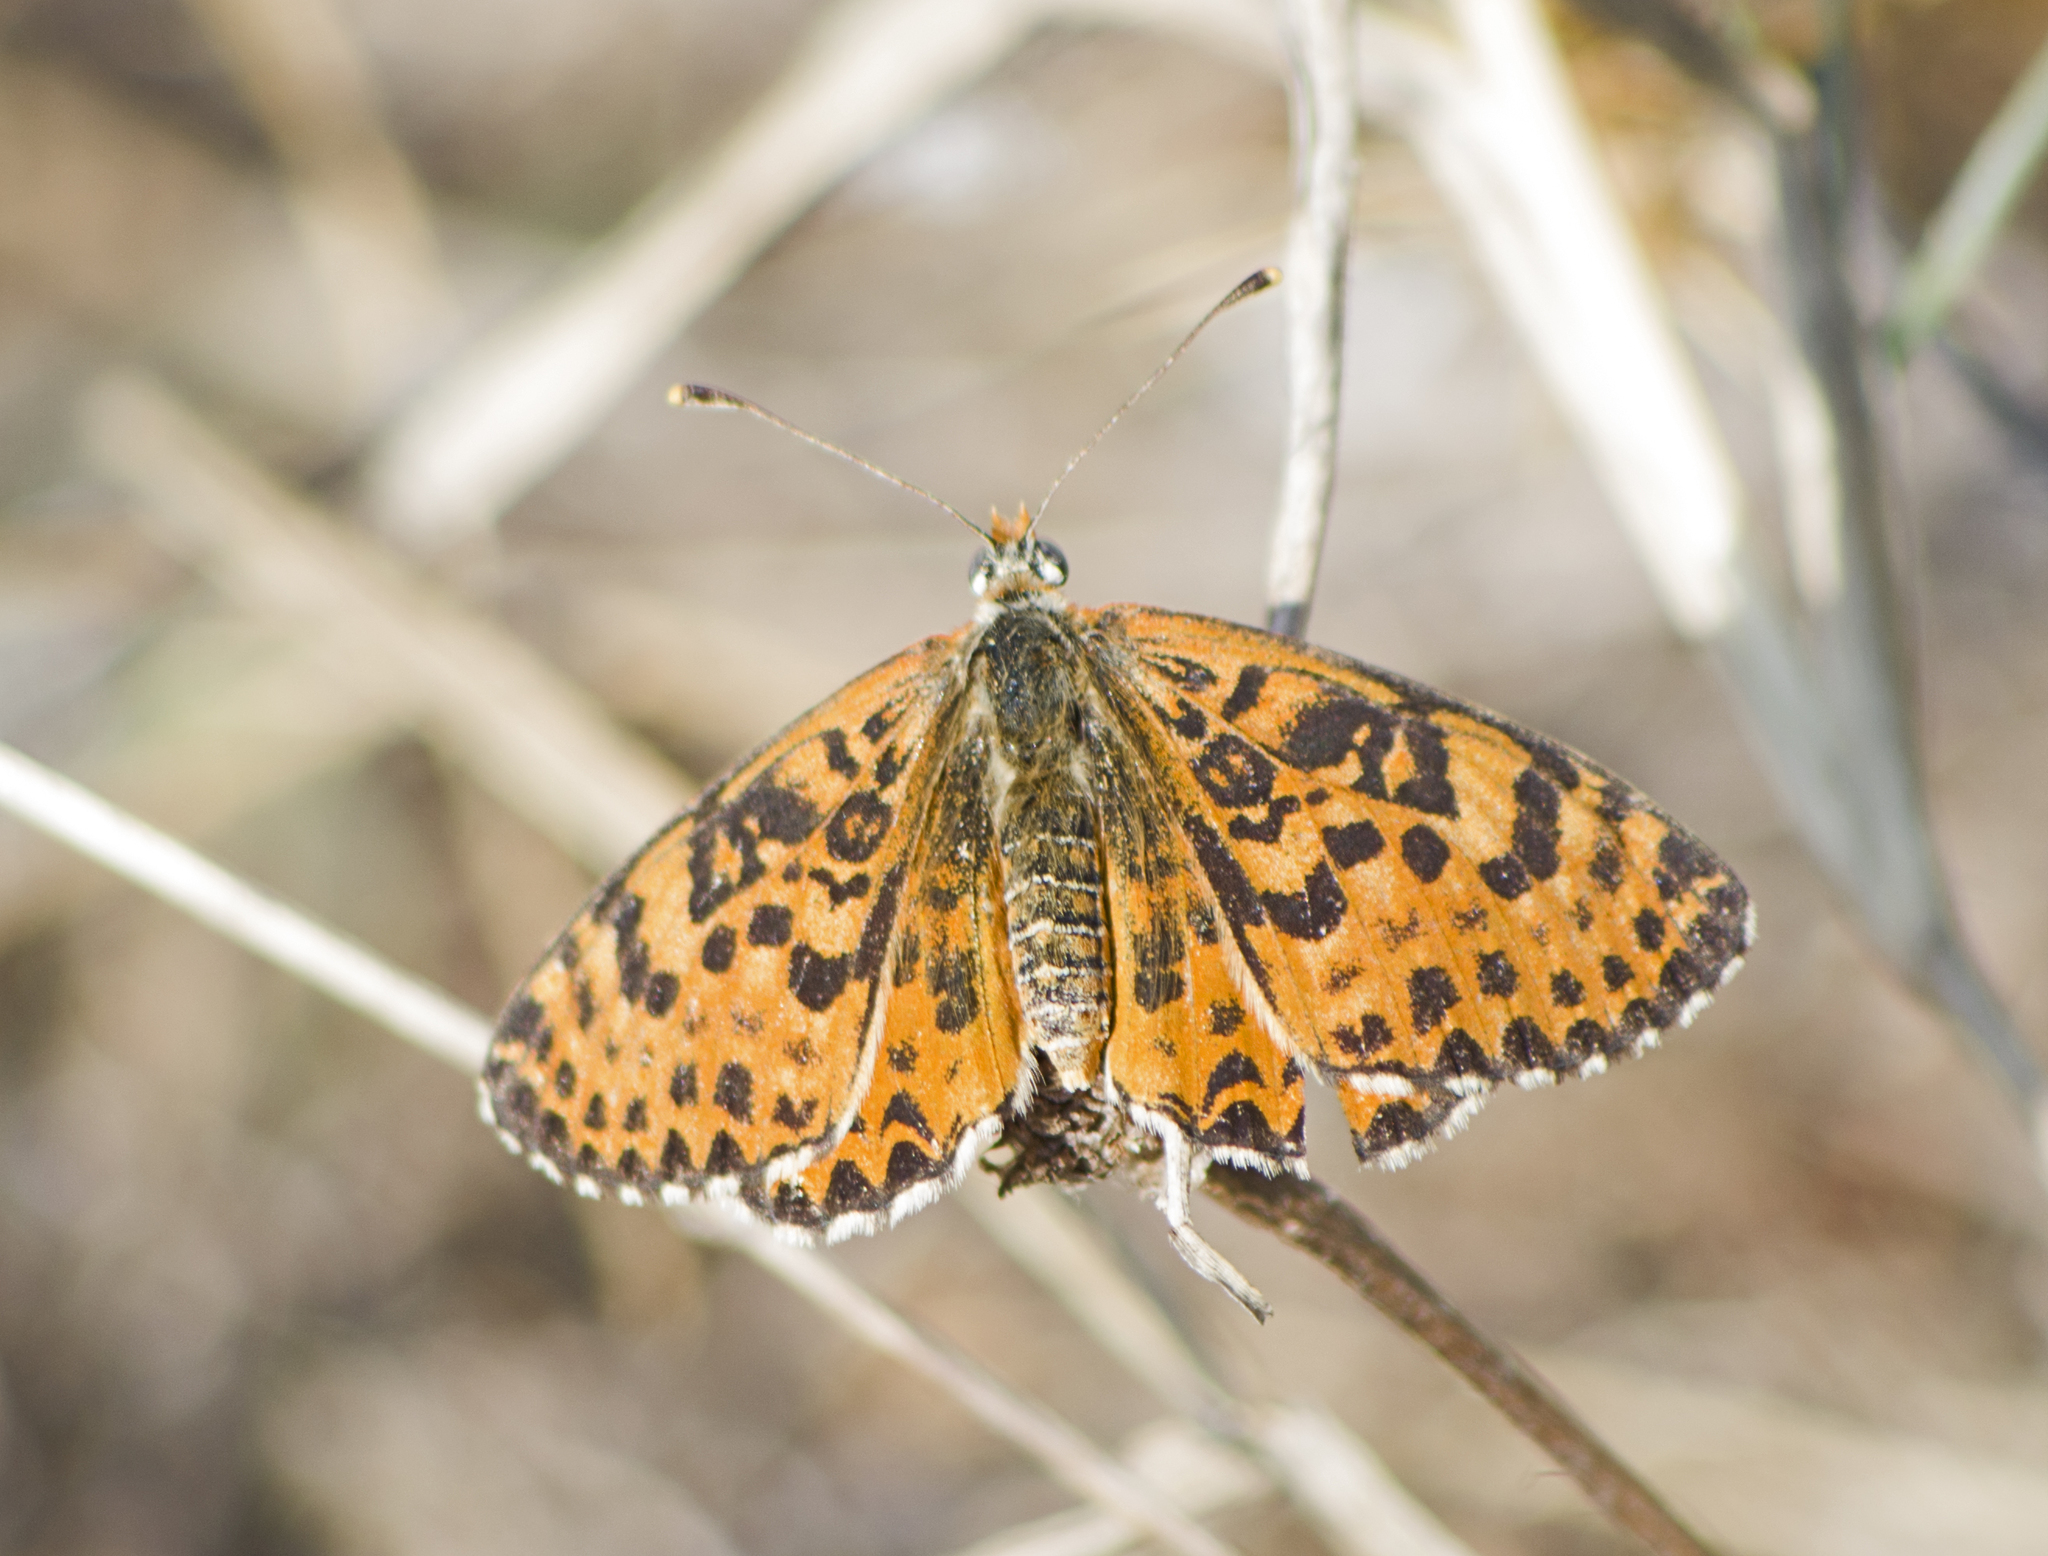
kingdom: Animalia
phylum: Arthropoda
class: Insecta
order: Lepidoptera
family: Nymphalidae
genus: Melitaea
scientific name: Melitaea didyma
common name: Spotted fritillary
